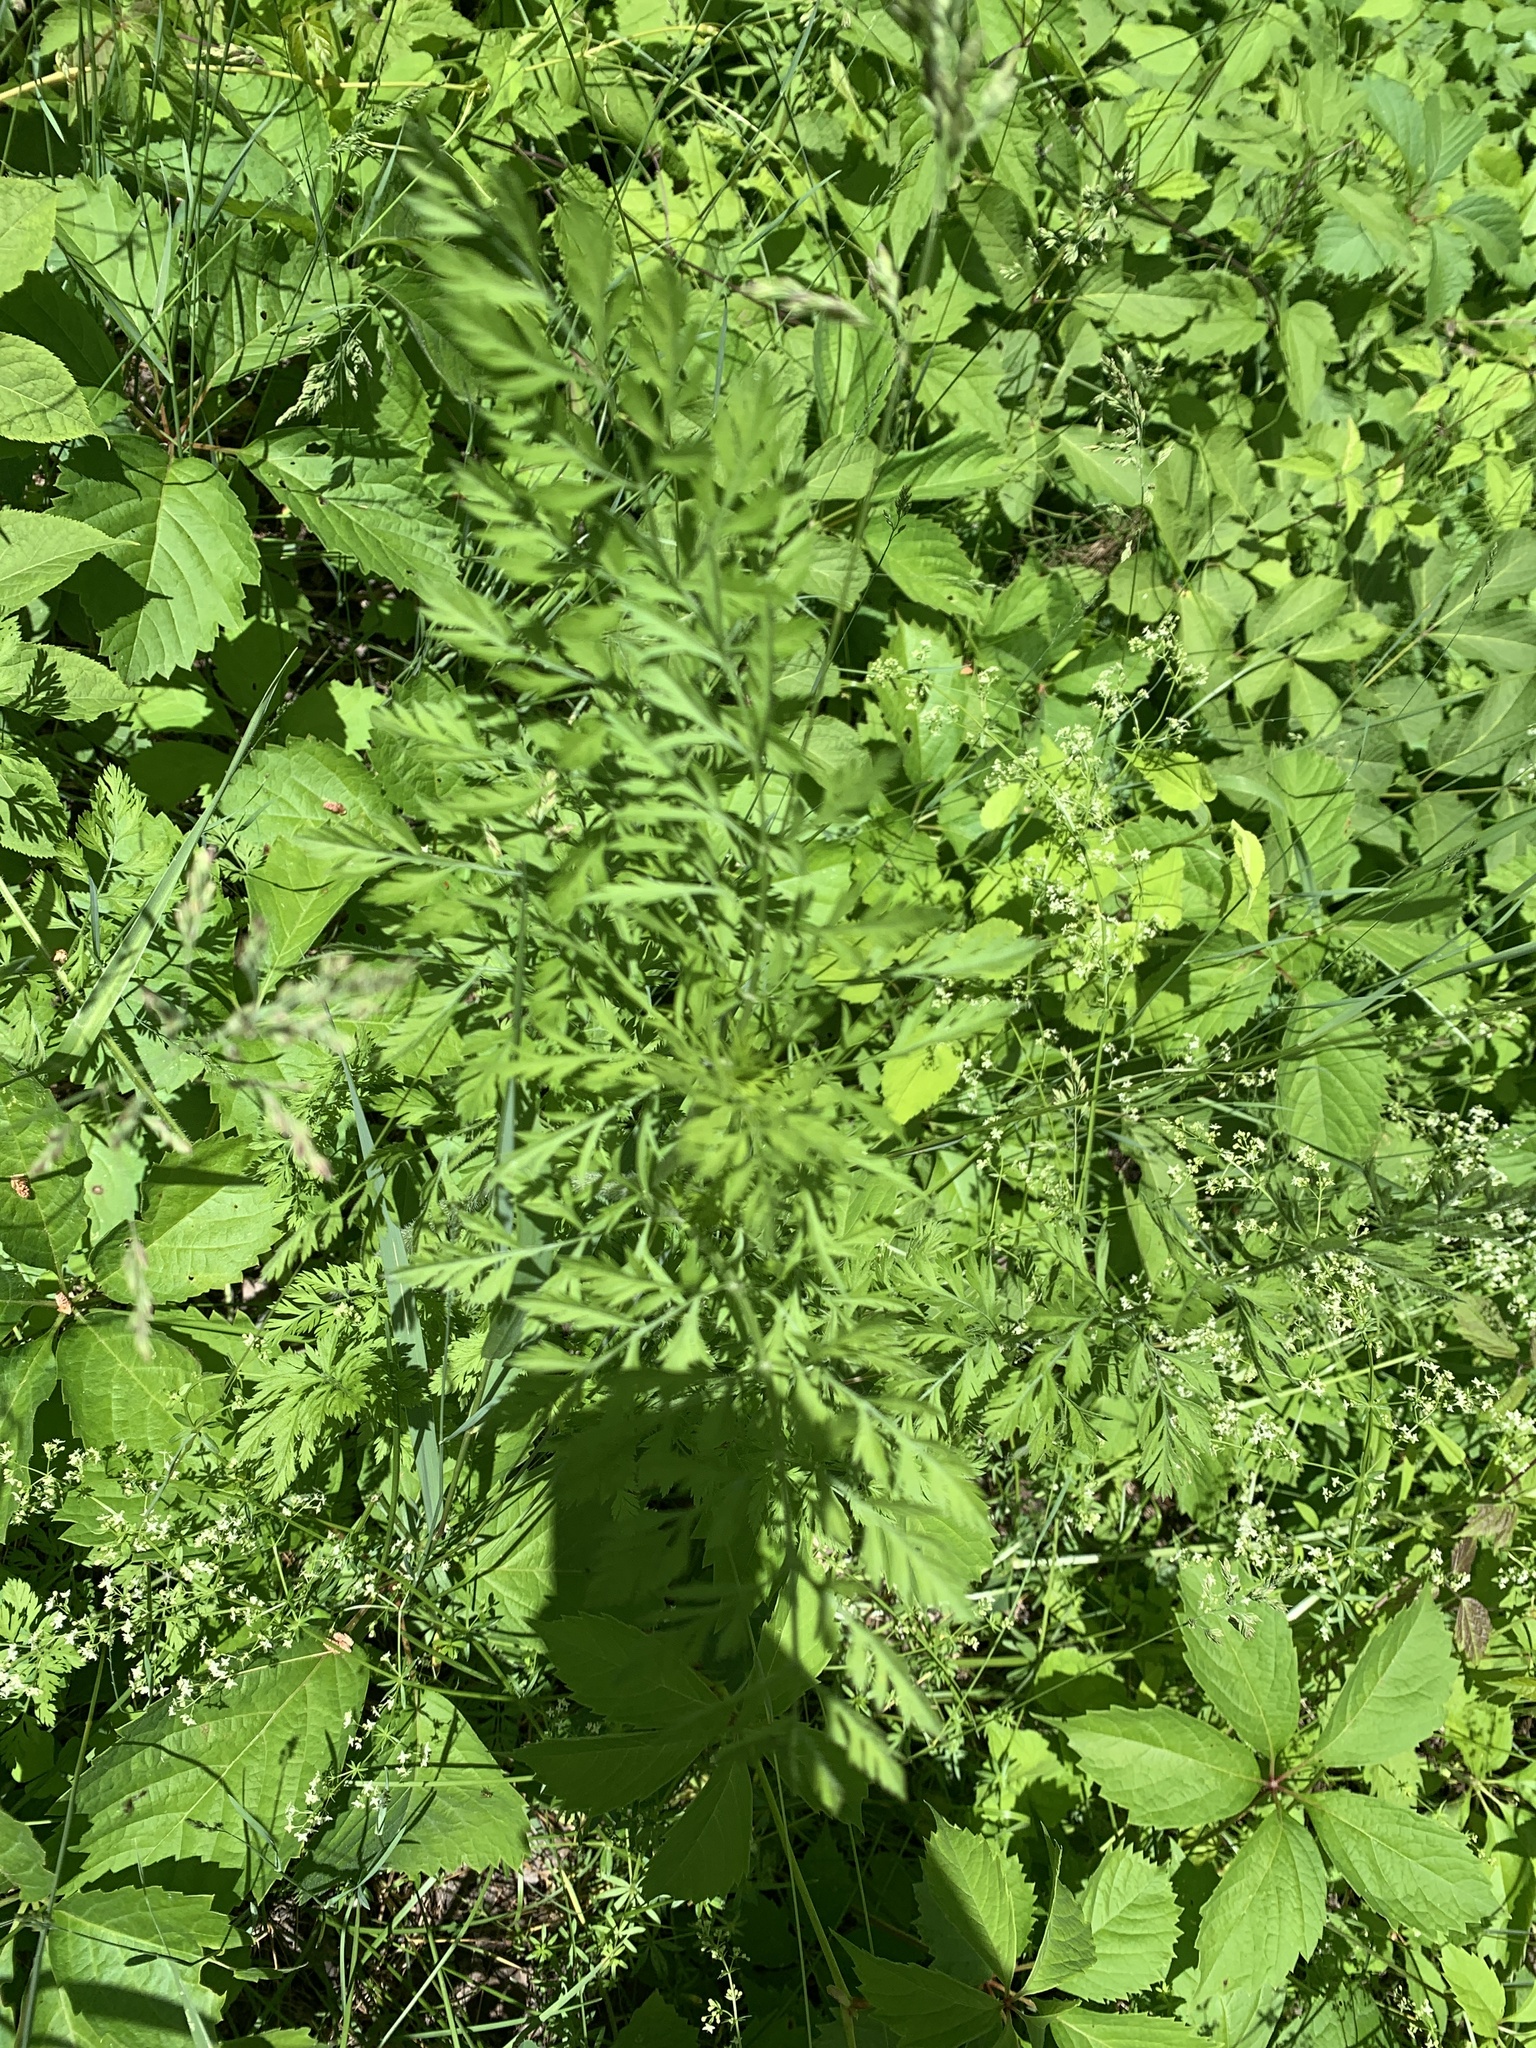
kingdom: Plantae
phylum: Tracheophyta
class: Magnoliopsida
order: Apiales
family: Apiaceae
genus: Daucus
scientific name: Daucus carota
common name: Wild carrot
